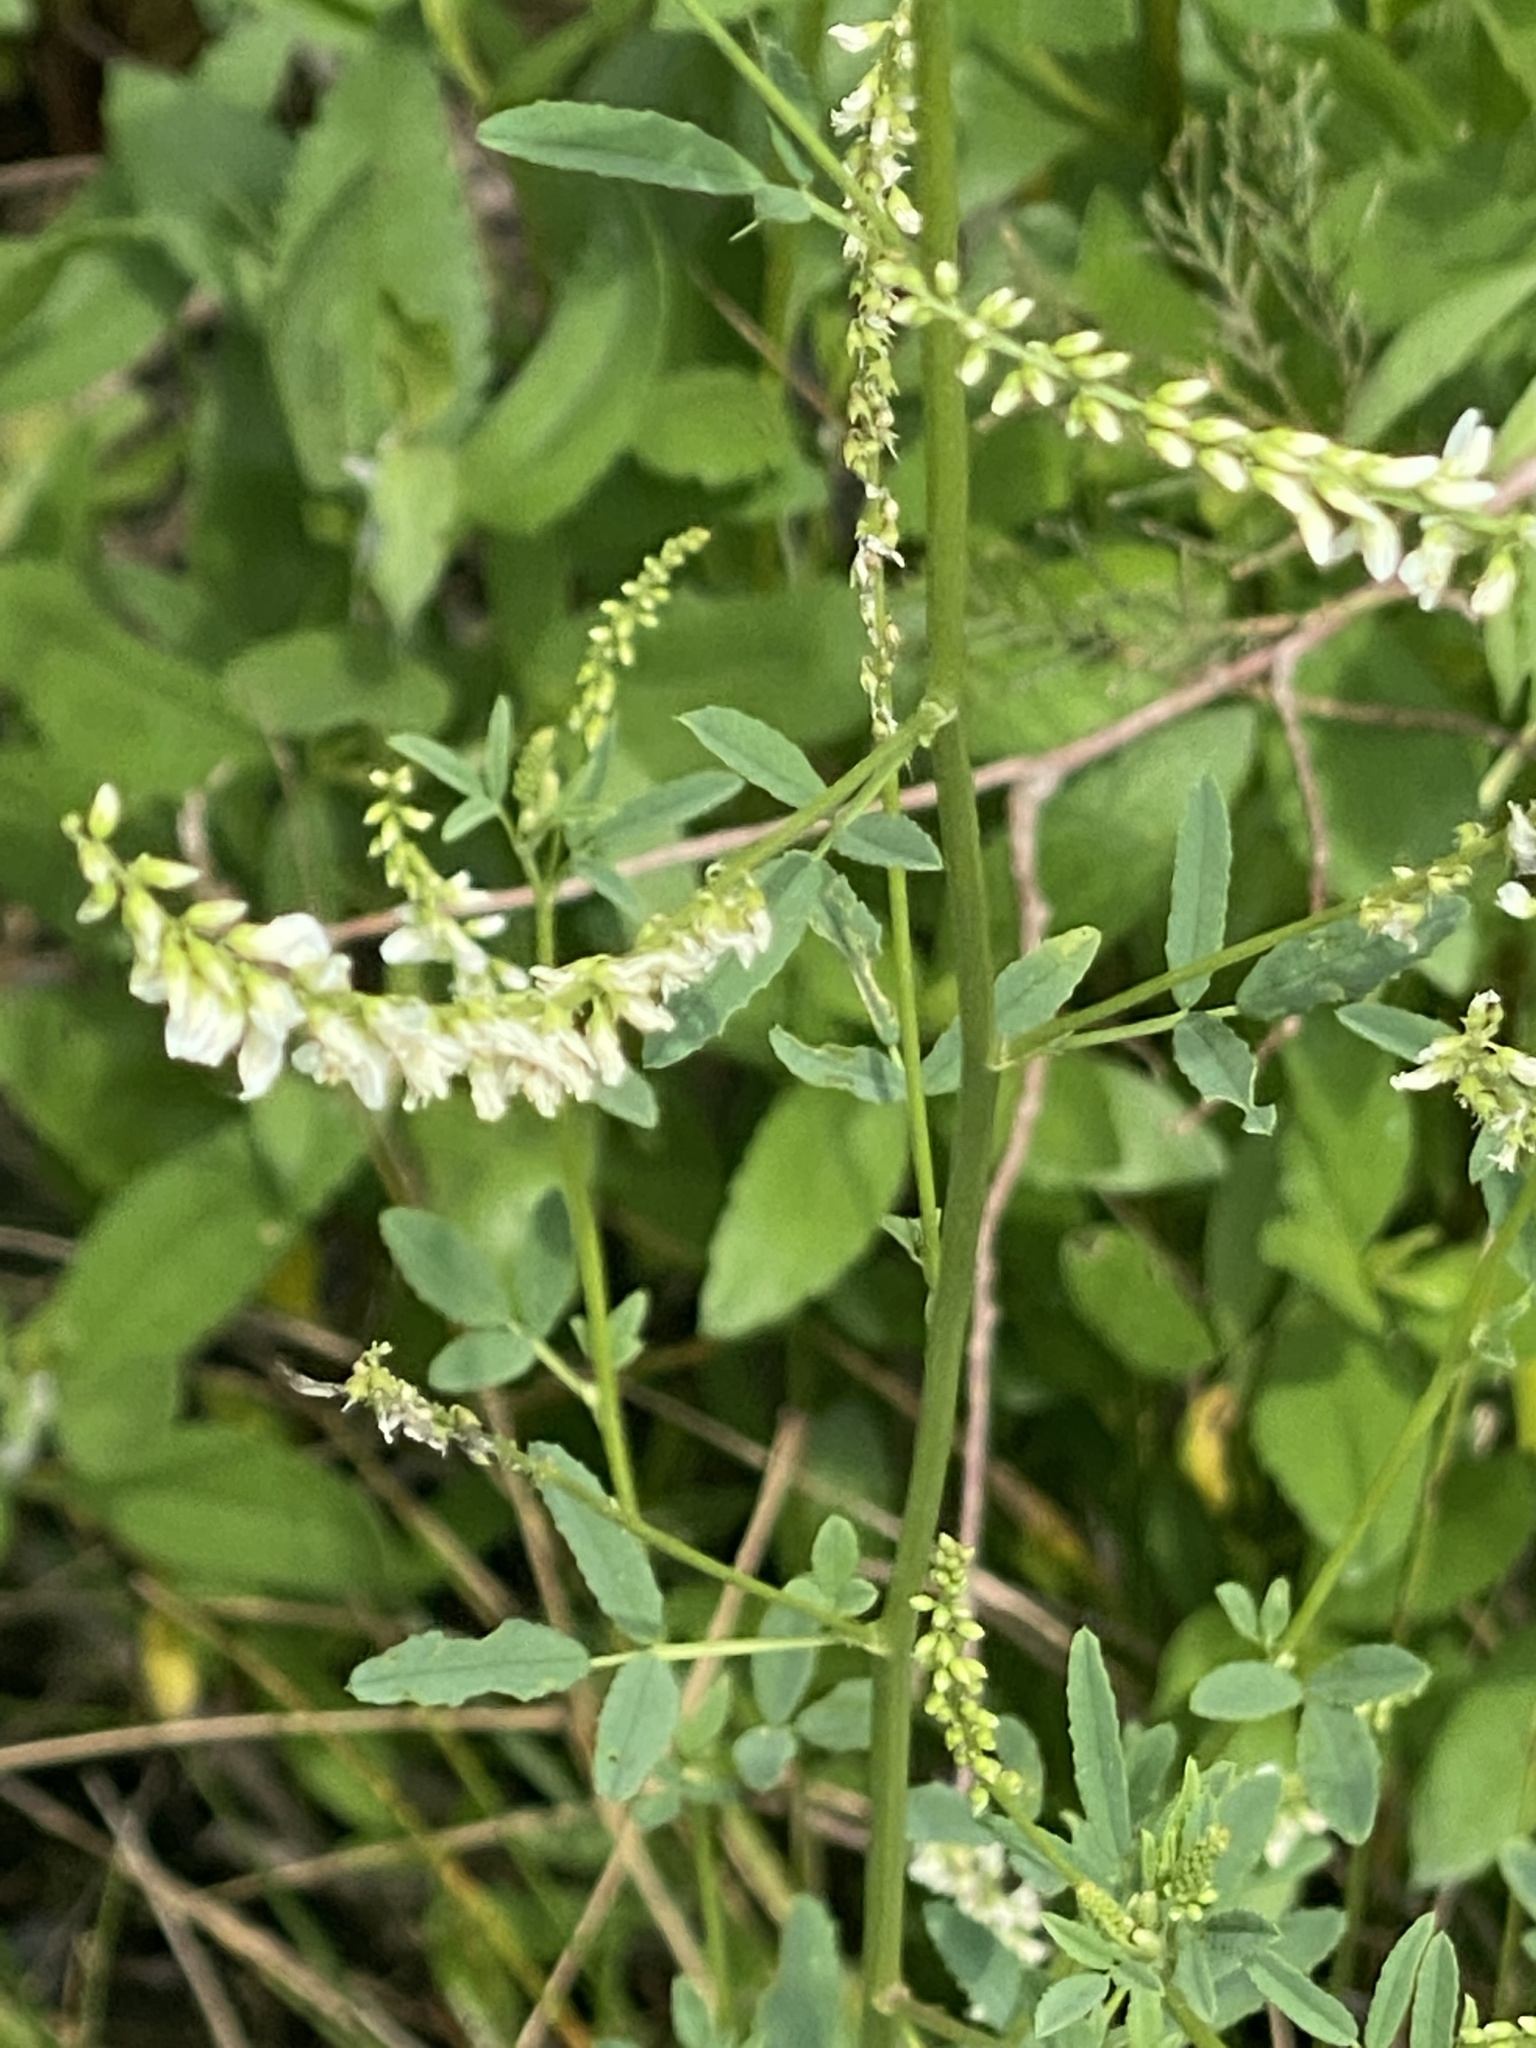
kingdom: Plantae
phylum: Tracheophyta
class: Magnoliopsida
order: Fabales
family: Fabaceae
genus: Melilotus
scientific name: Melilotus albus
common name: White melilot
